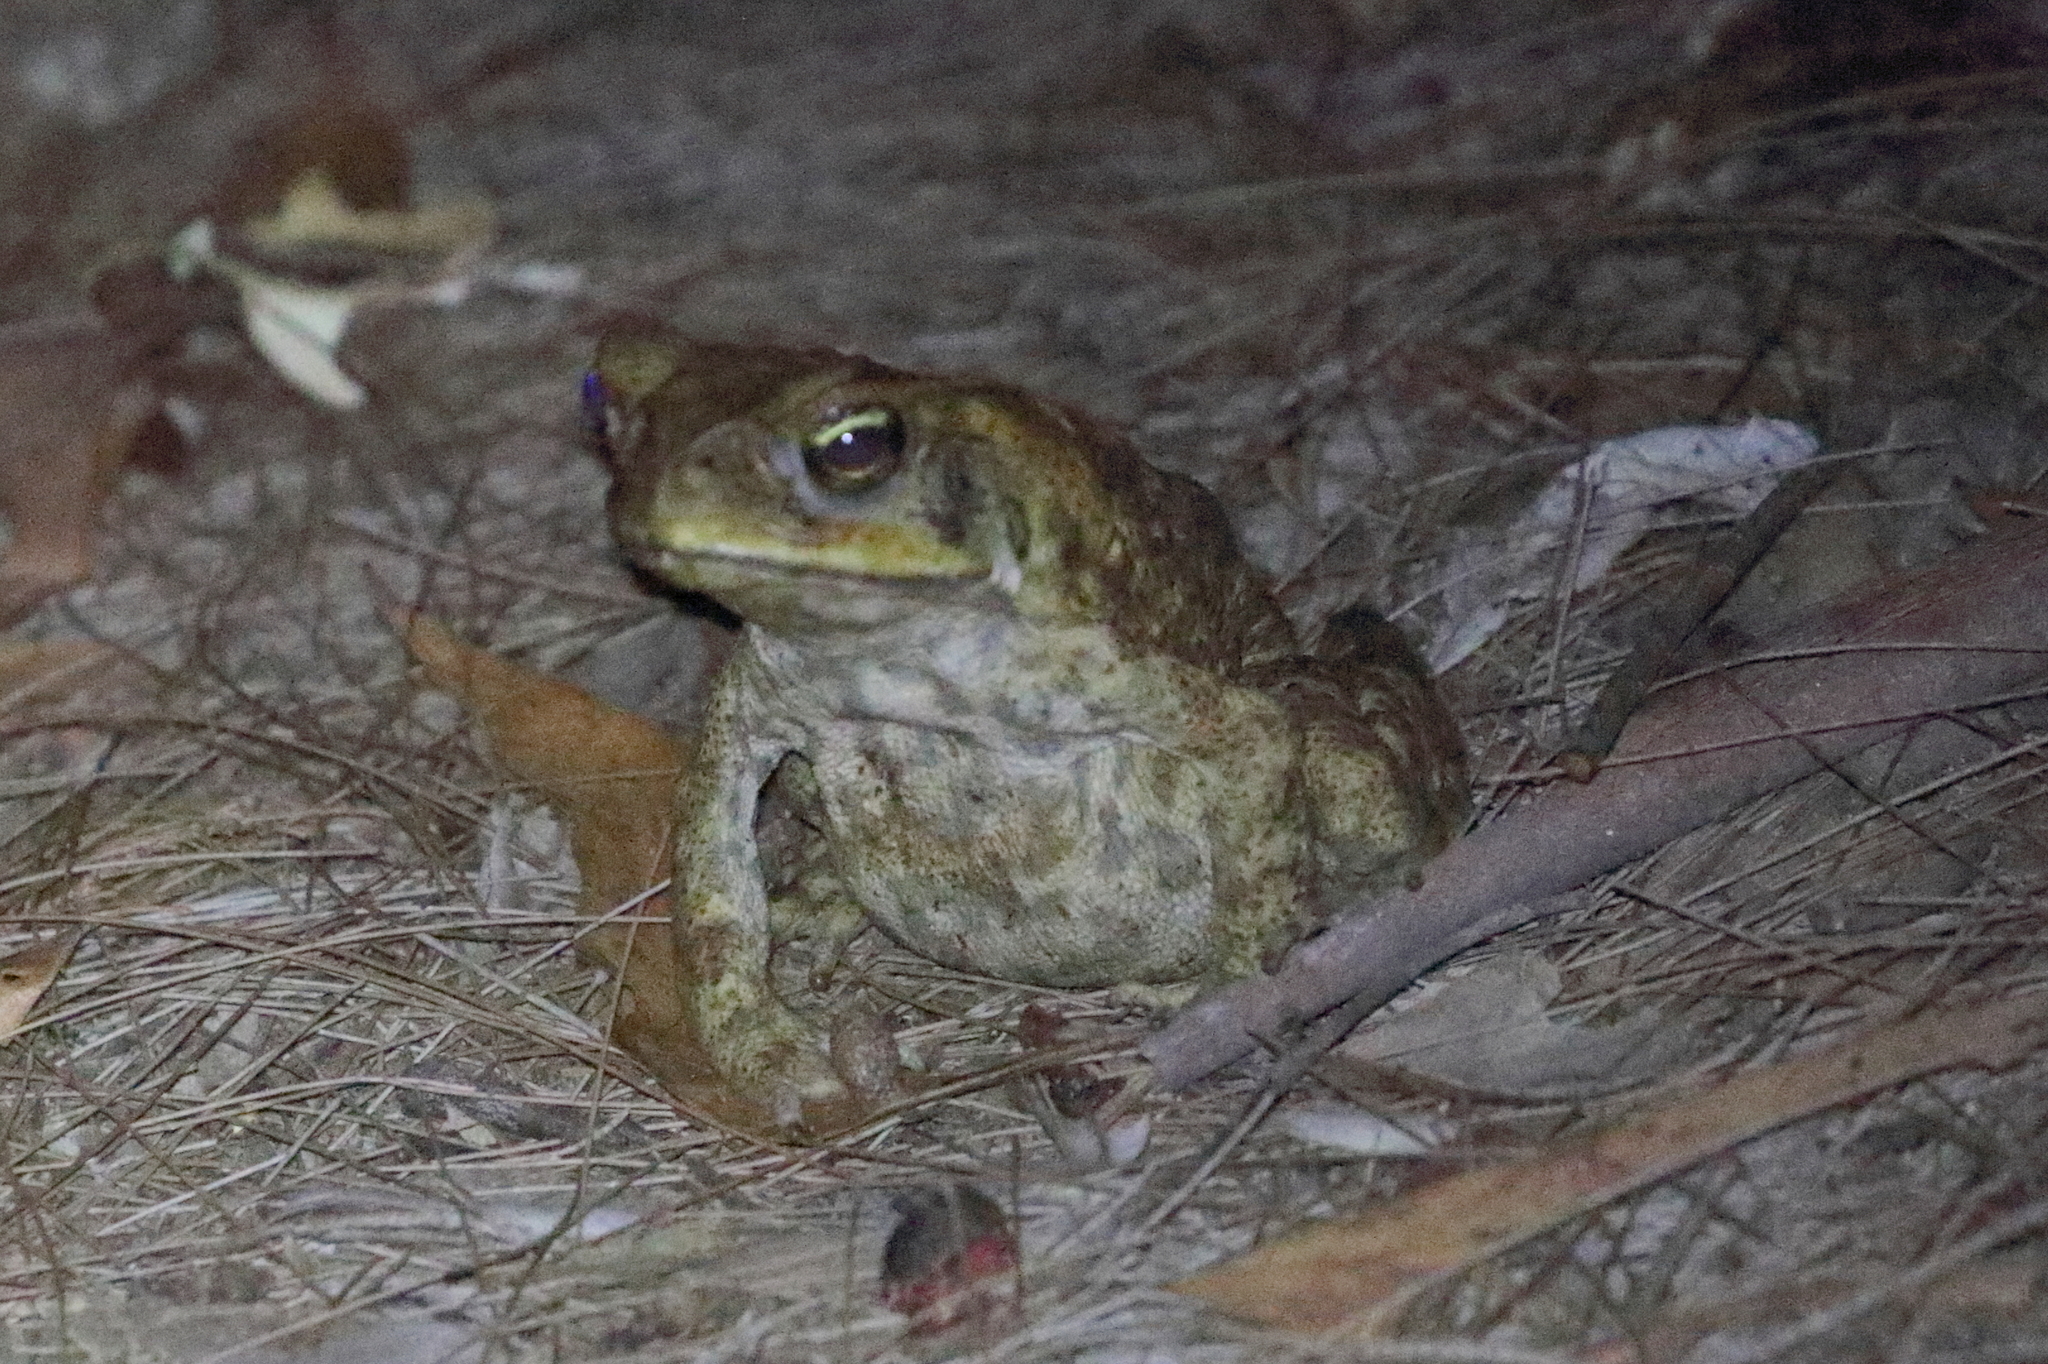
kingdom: Animalia
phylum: Chordata
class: Amphibia
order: Anura
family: Bufonidae
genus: Rhinella
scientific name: Rhinella marina
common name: Cane toad
